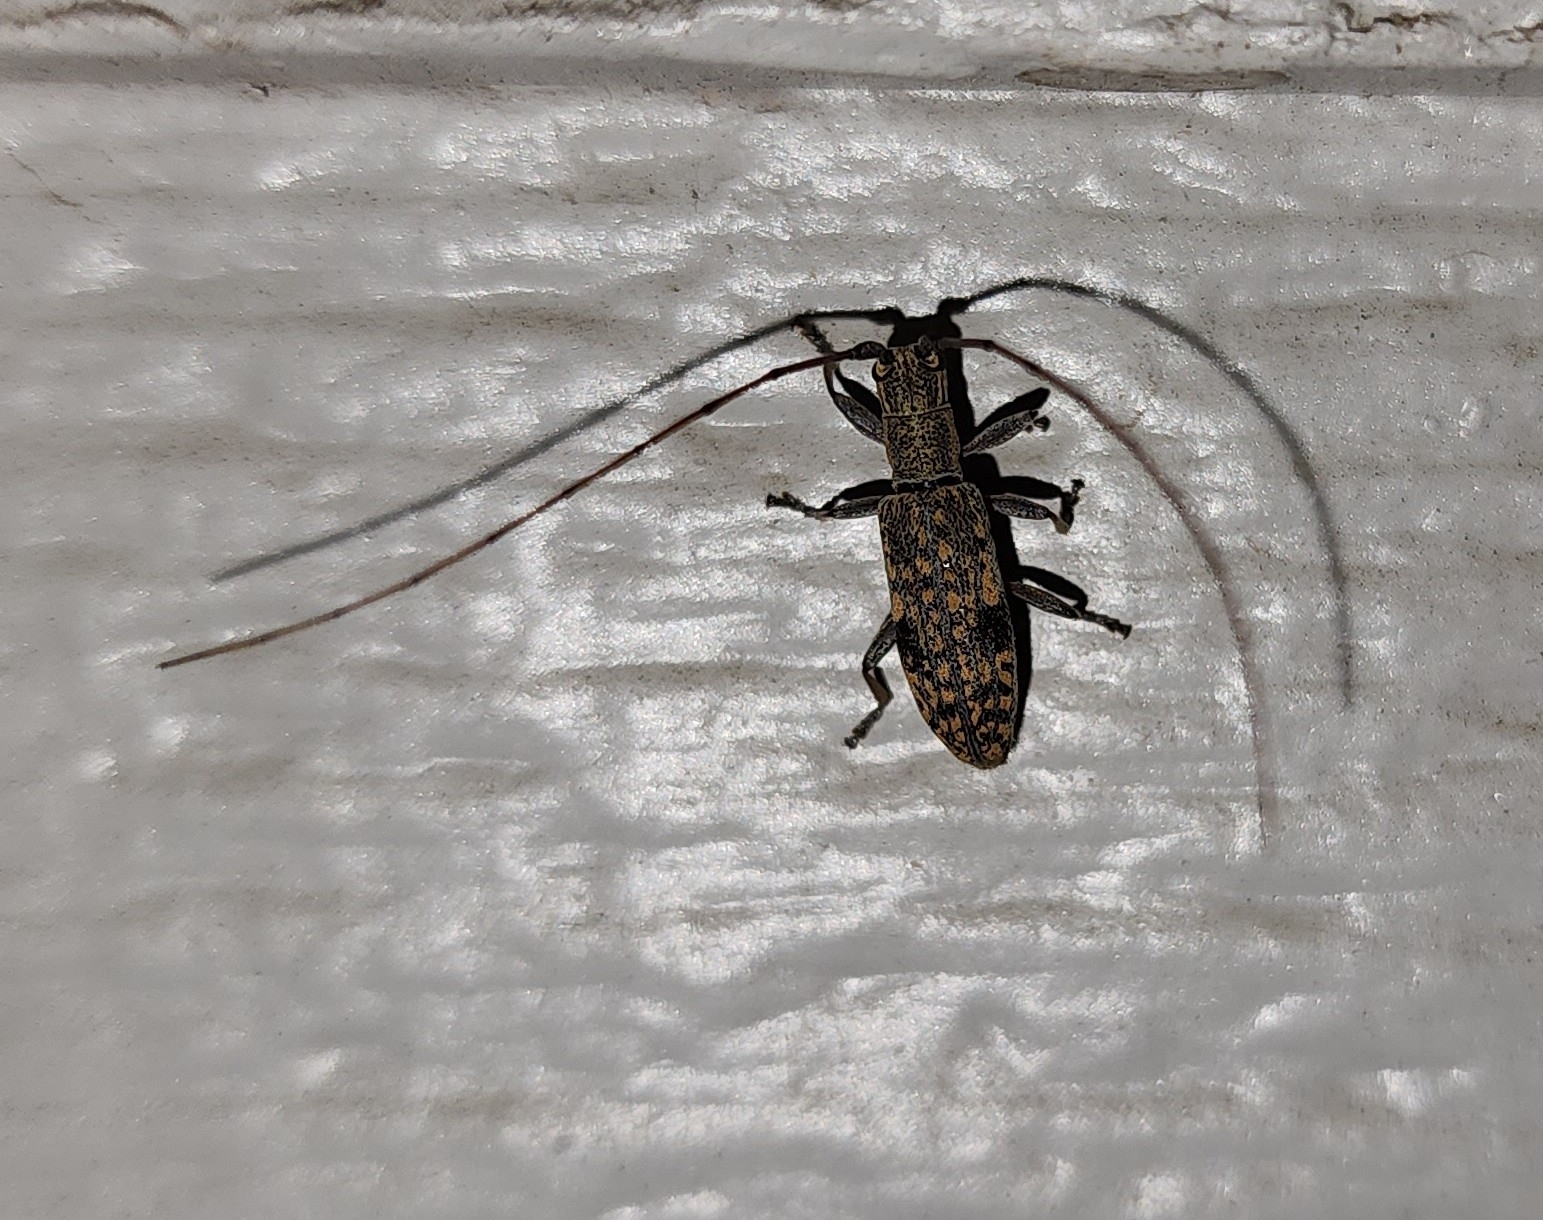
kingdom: Animalia
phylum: Arthropoda
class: Insecta
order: Coleoptera
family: Cerambycidae
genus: Dorcaschema
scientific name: Dorcaschema alternatum
